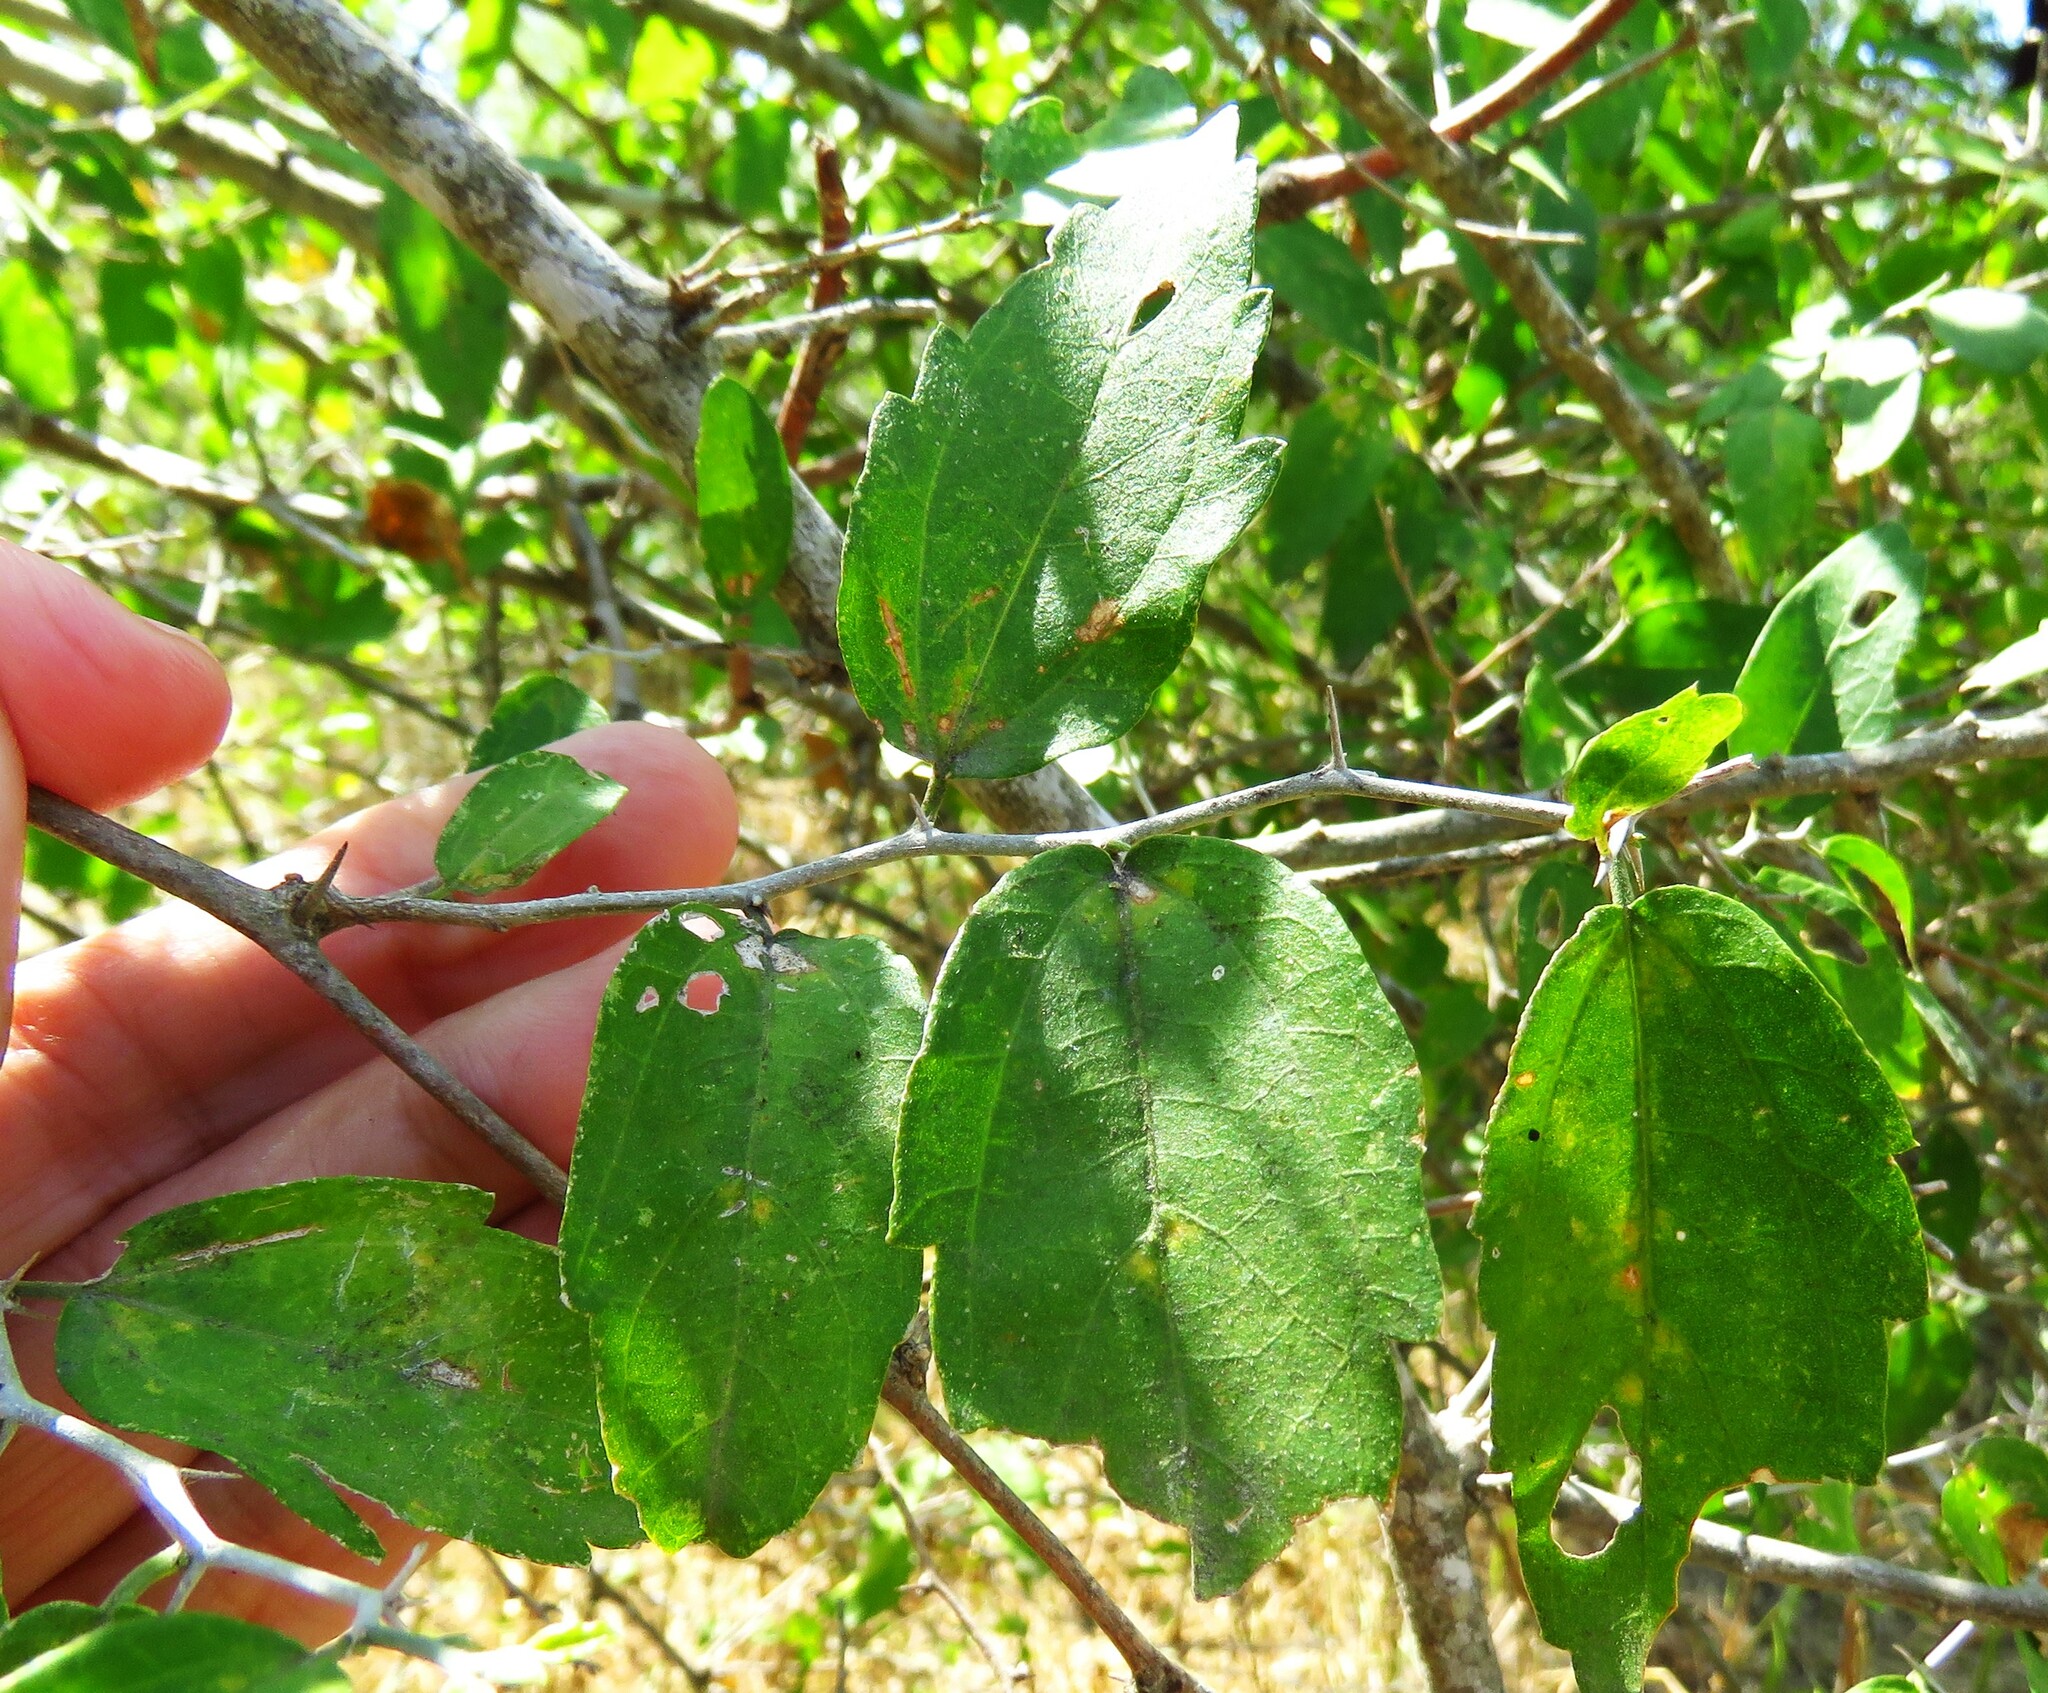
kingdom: Plantae
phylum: Tracheophyta
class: Magnoliopsida
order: Rosales
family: Cannabaceae
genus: Celtis
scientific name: Celtis pallida
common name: Desert hackberry
